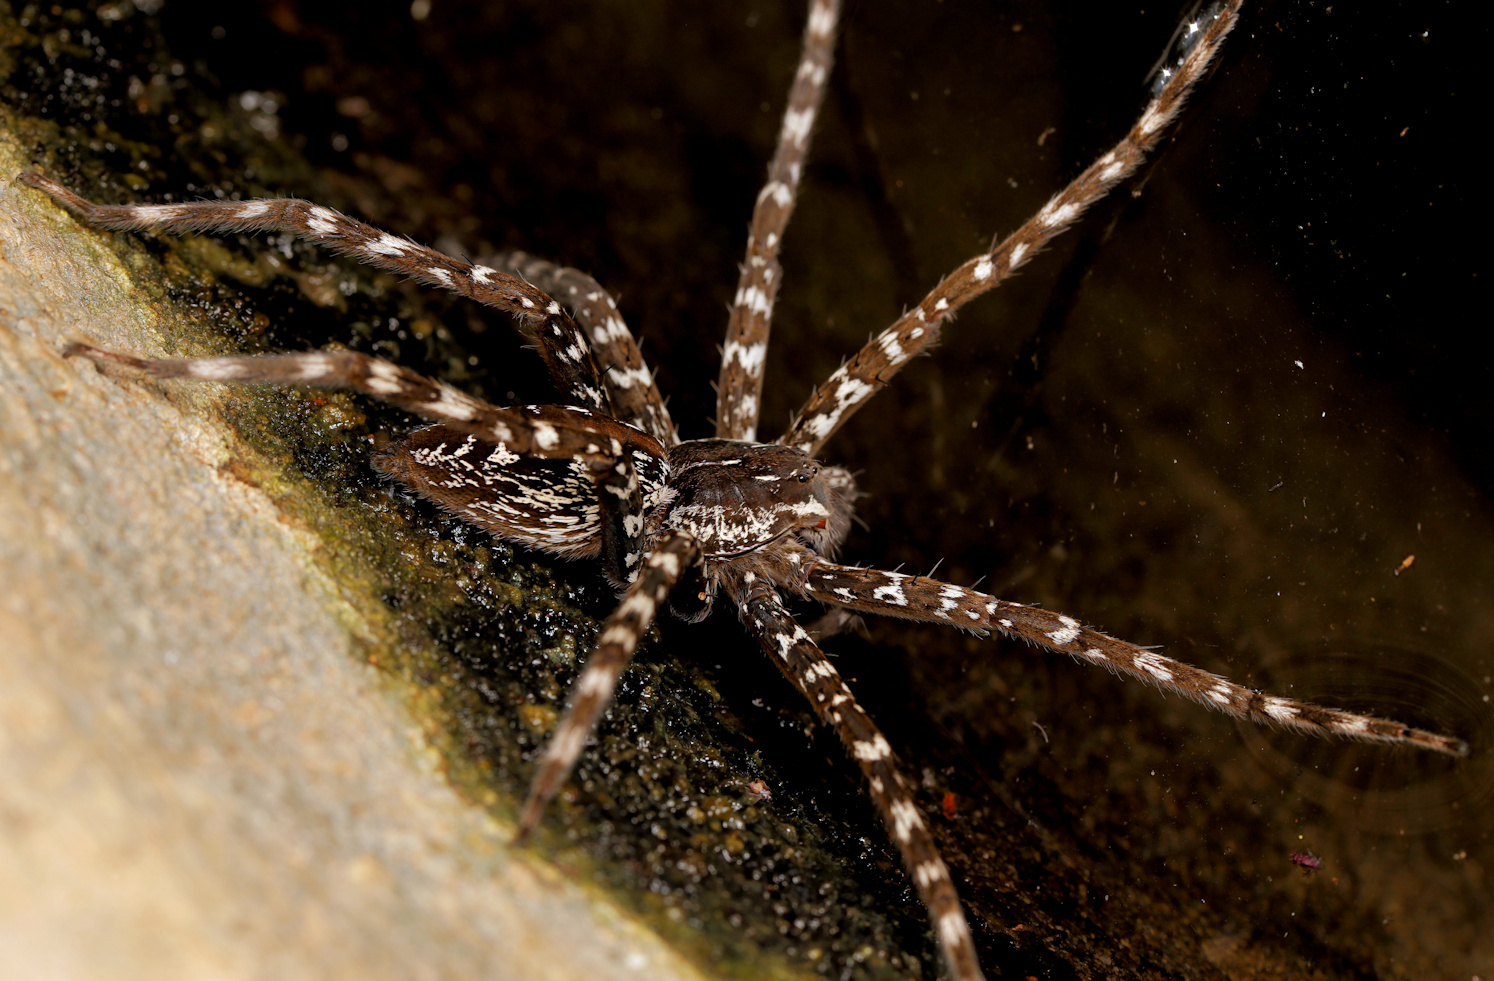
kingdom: Animalia
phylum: Arthropoda
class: Arachnida
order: Araneae
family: Pisauridae
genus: Nilus
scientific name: Nilus curtus
